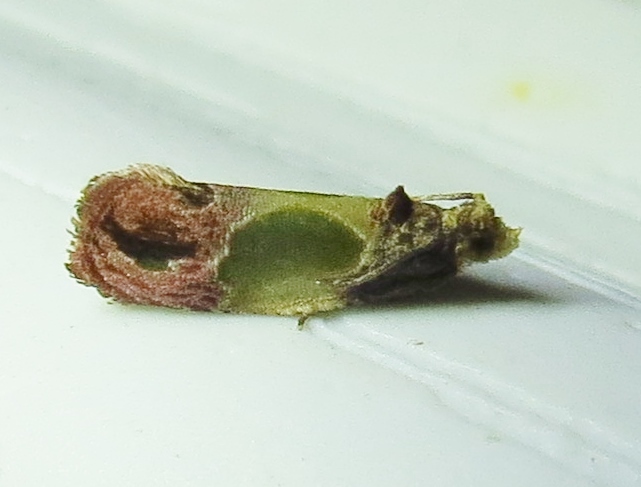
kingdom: Animalia
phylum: Arthropoda
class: Insecta
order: Lepidoptera
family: Tortricidae
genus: Eumarozia
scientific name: Eumarozia malachitana
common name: Sculptured moth
